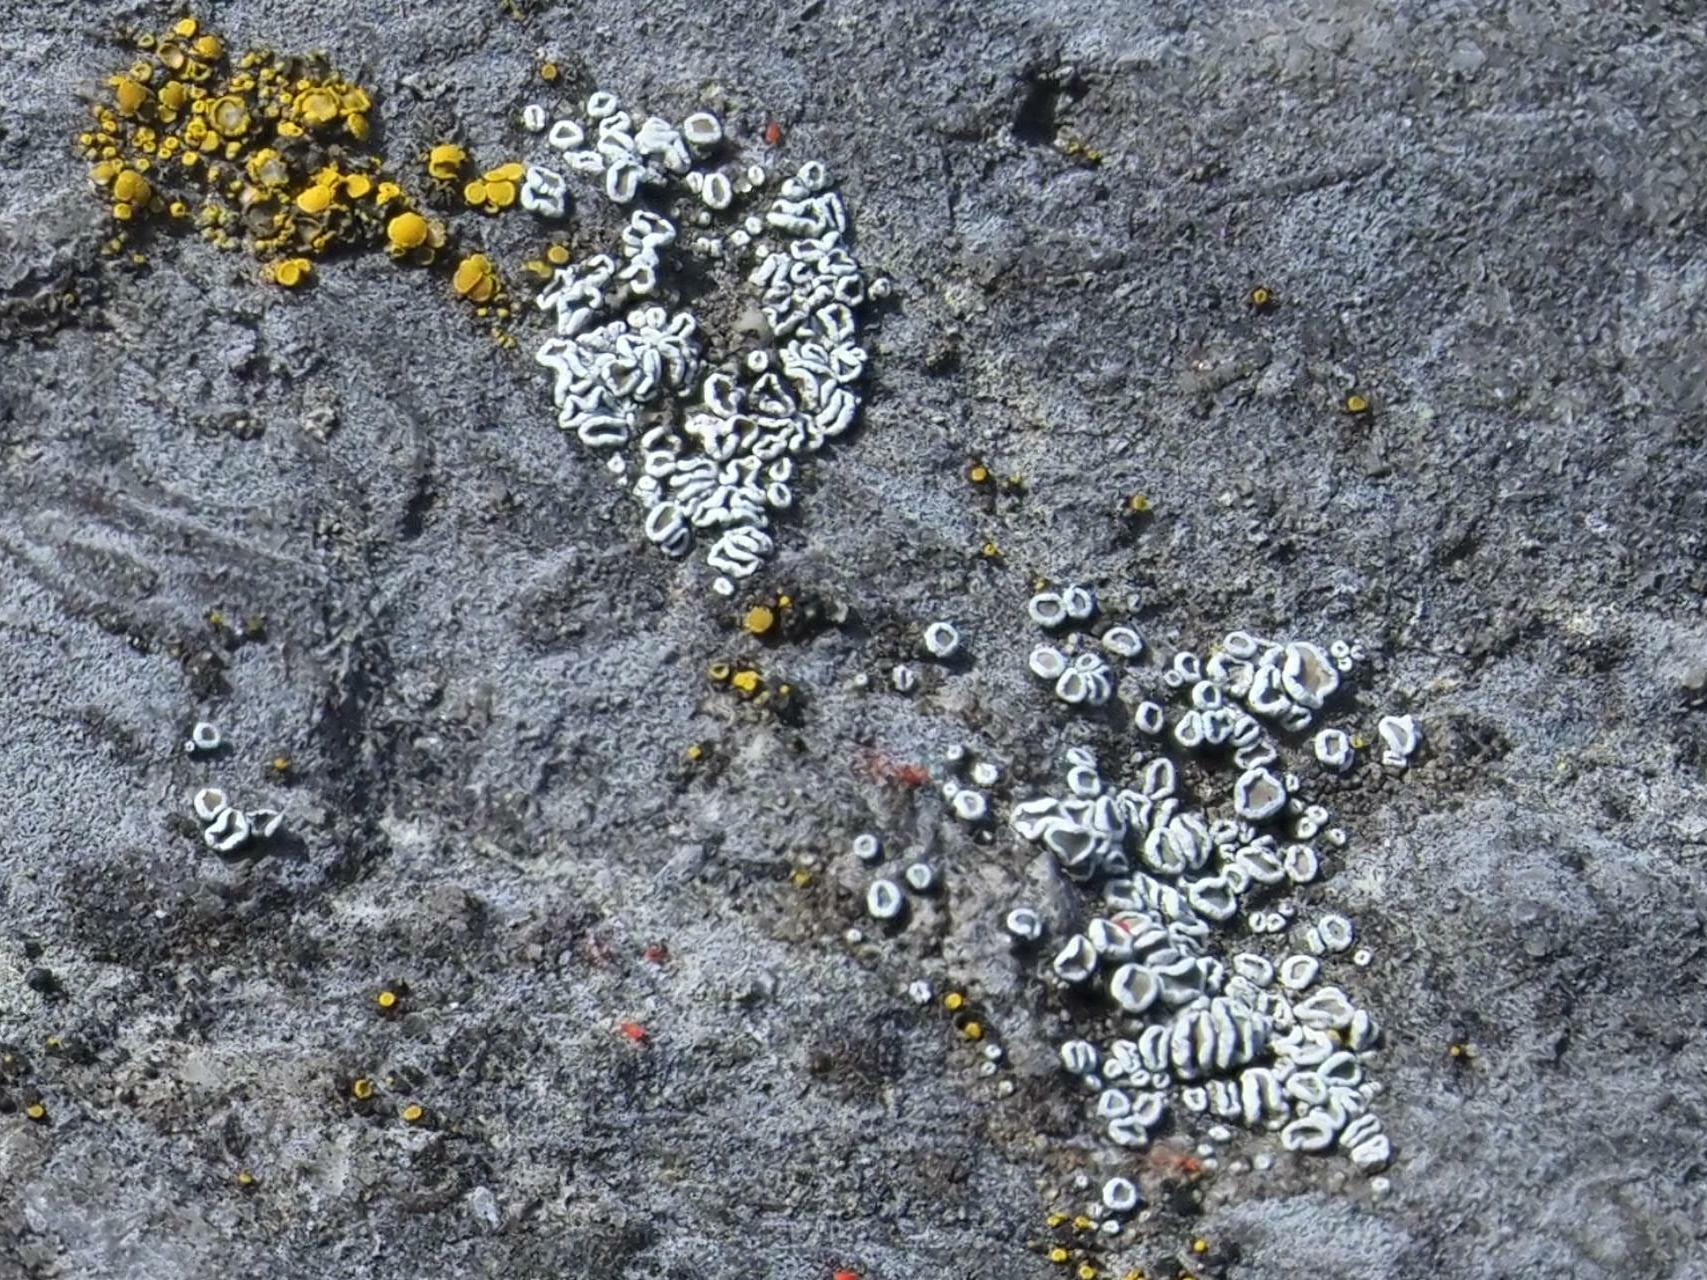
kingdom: Fungi
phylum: Ascomycota
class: Lecanoromycetes
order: Lecanorales
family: Lecanoraceae
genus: Polyozosia
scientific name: Polyozosia dispersa
